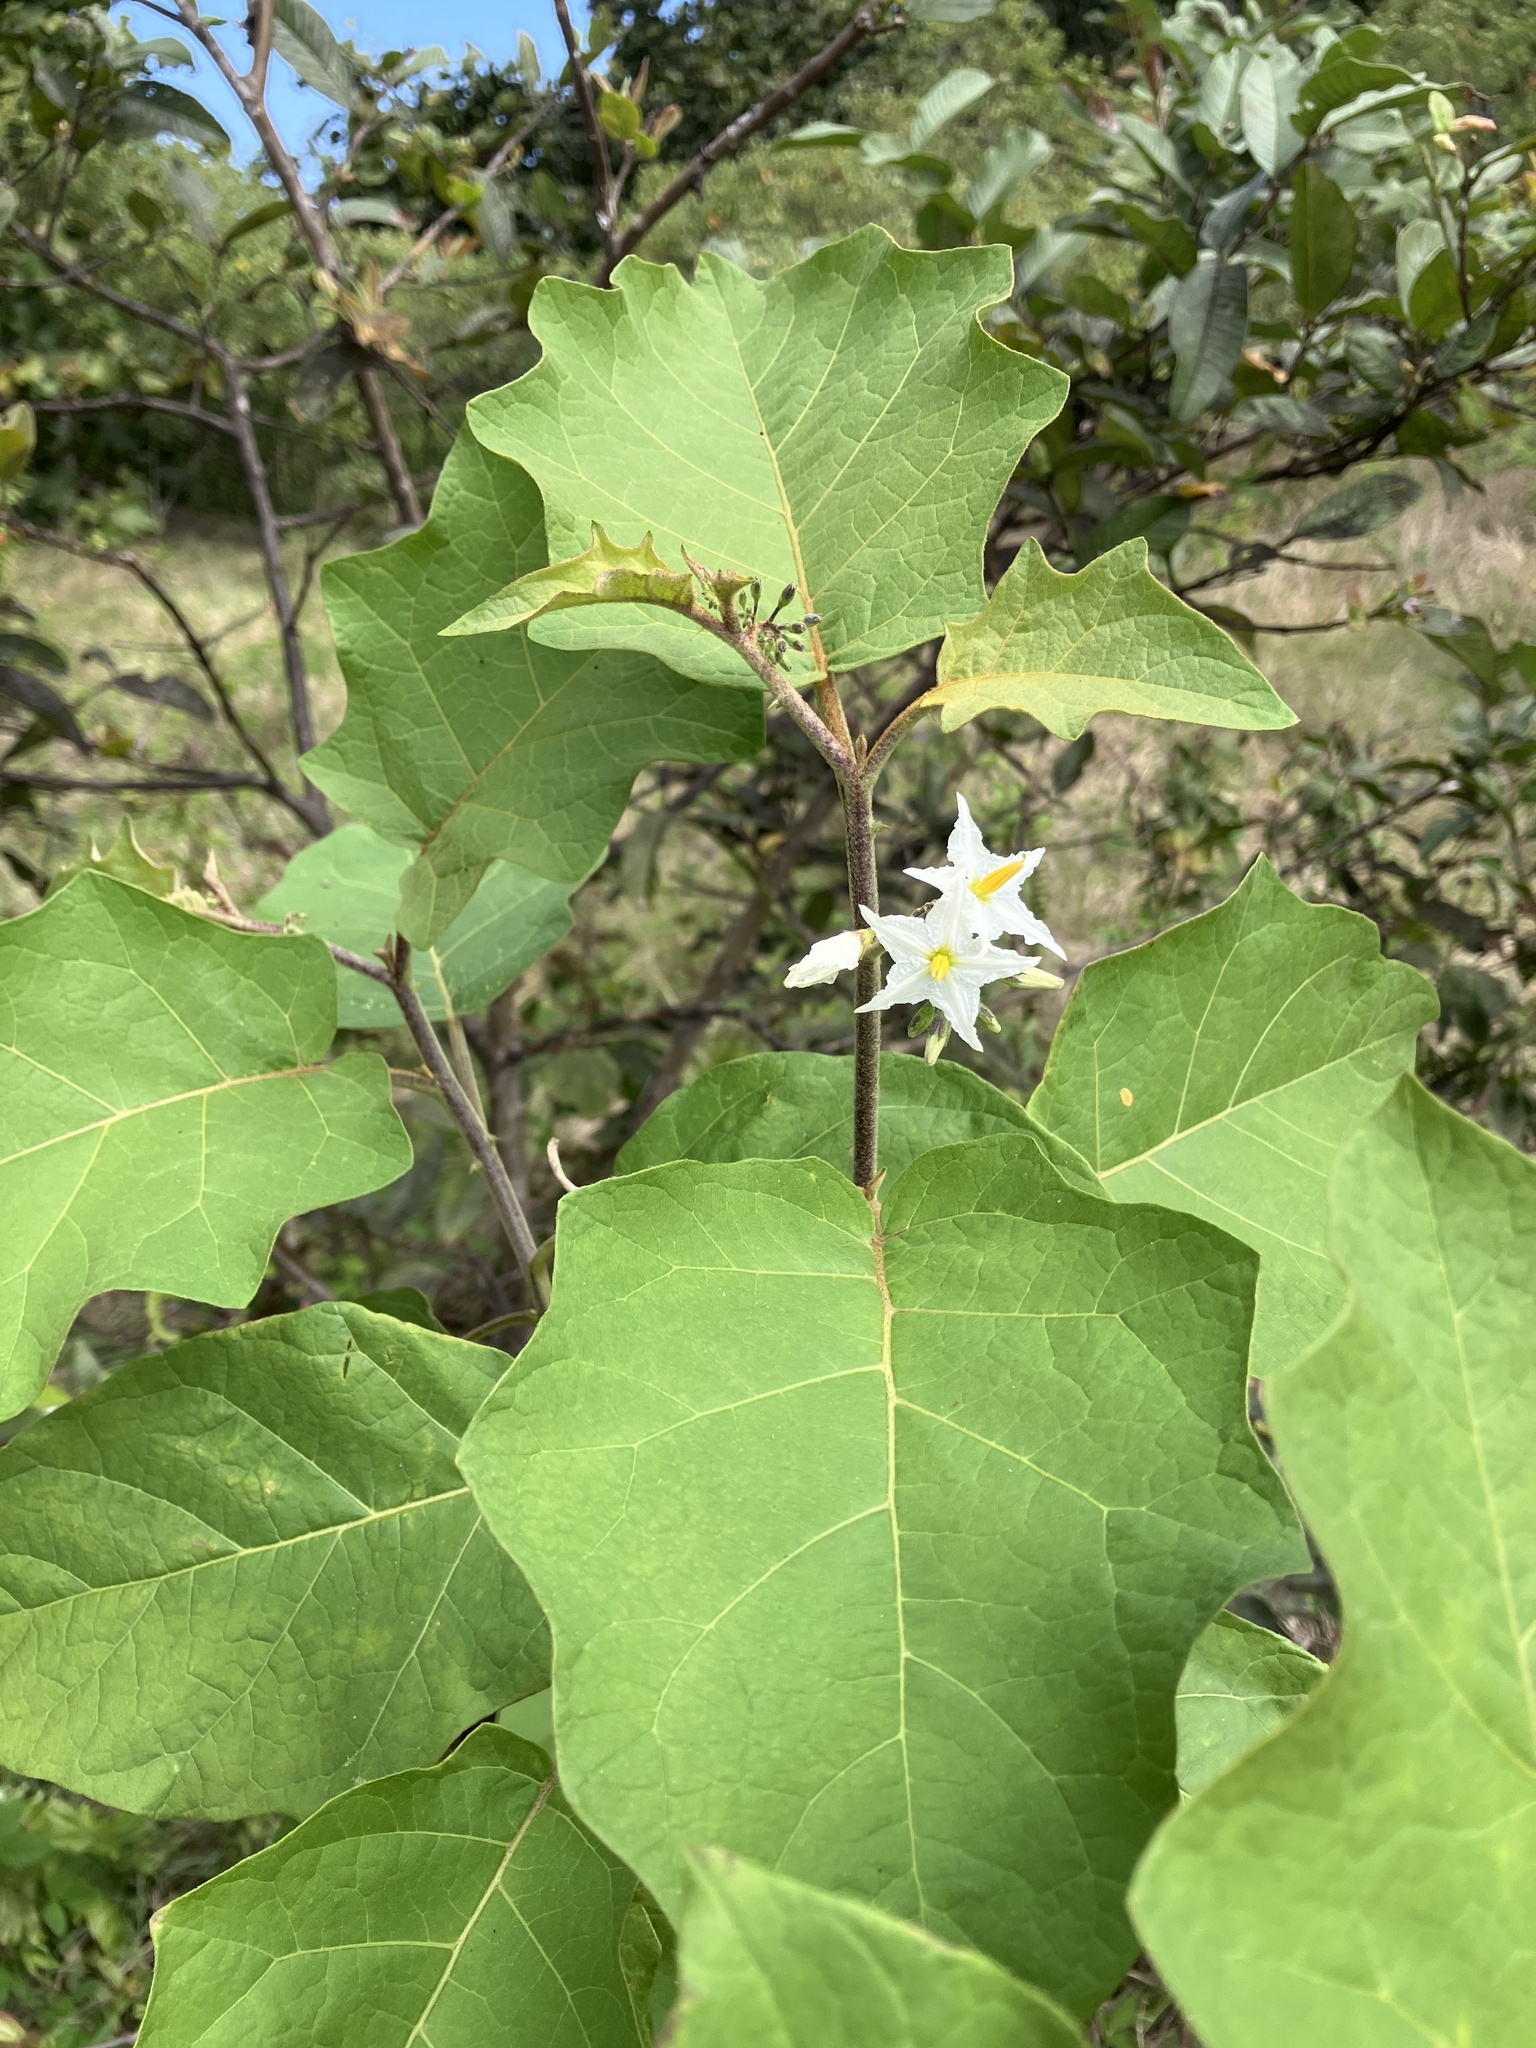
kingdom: Plantae
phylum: Tracheophyta
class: Magnoliopsida
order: Solanales
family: Solanaceae
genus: Solanum
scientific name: Solanum torvum
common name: Turkey berry
